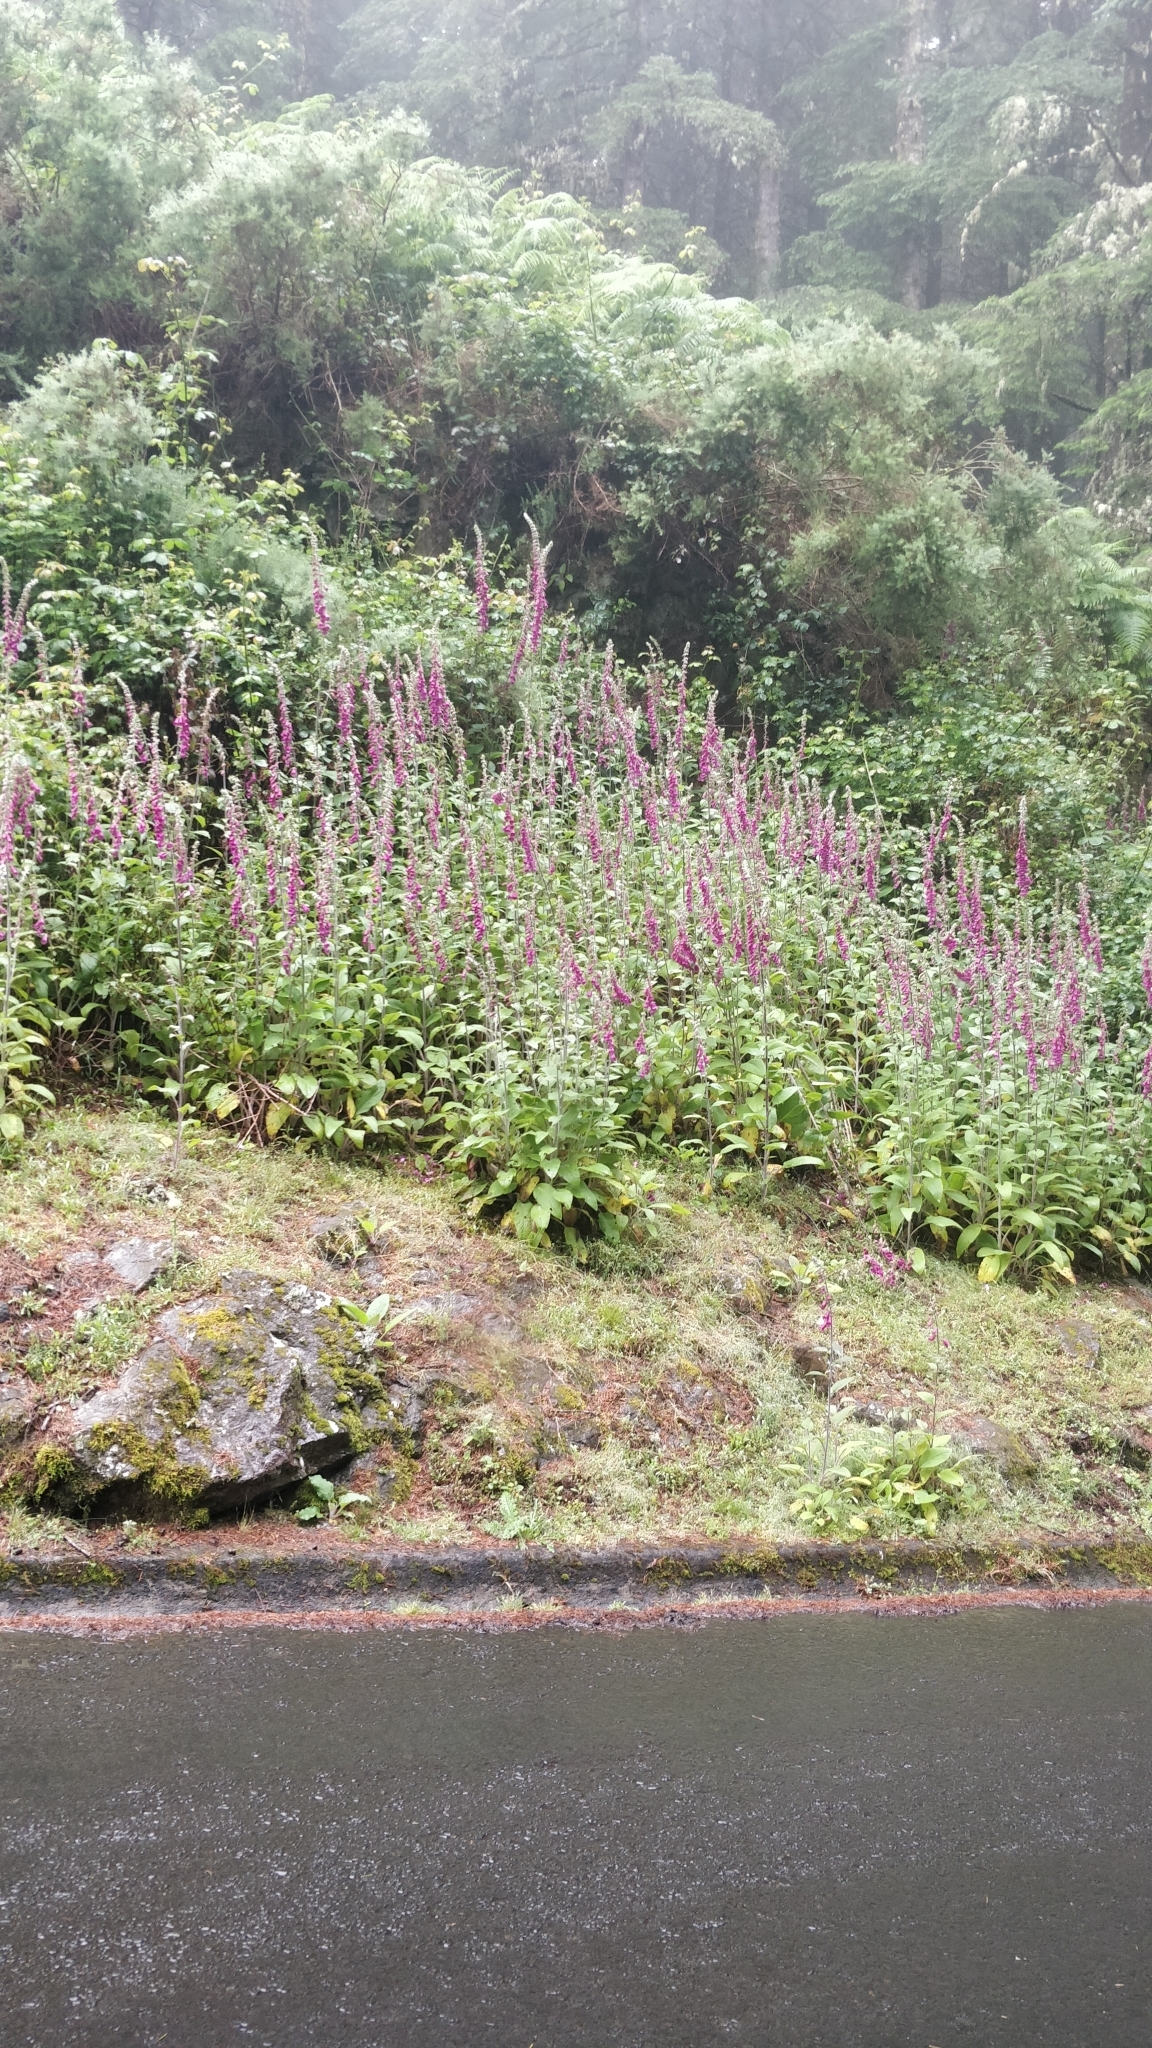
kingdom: Plantae
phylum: Tracheophyta
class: Magnoliopsida
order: Lamiales
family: Plantaginaceae
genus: Digitalis
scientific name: Digitalis purpurea
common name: Foxglove
